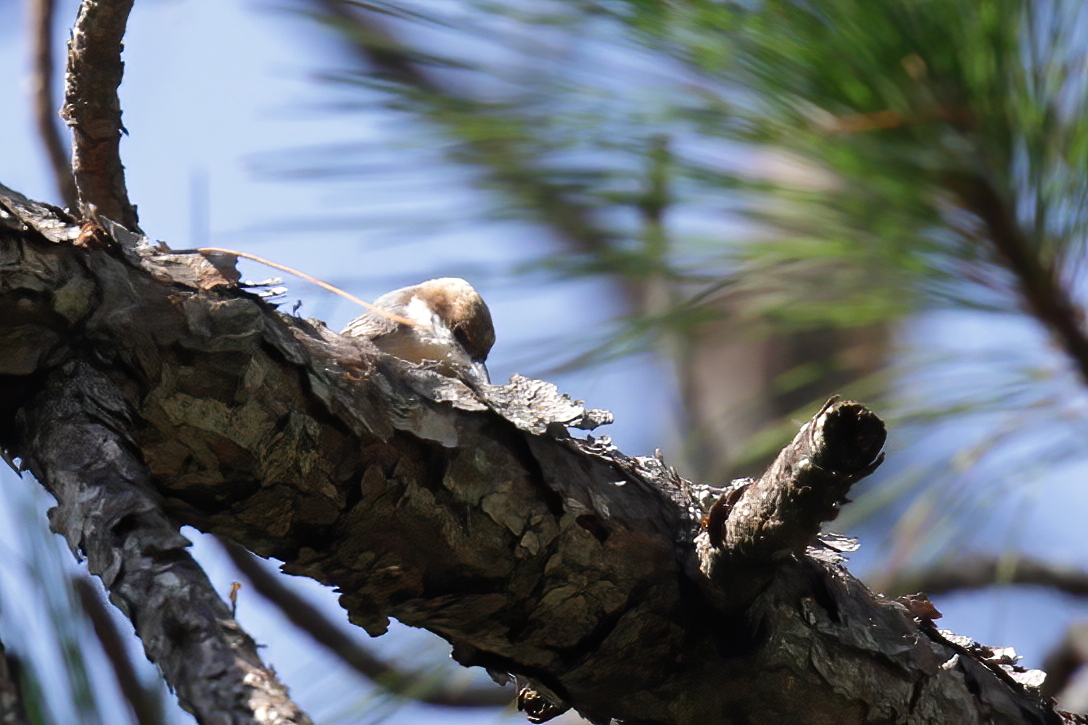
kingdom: Animalia
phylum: Chordata
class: Aves
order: Passeriformes
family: Sittidae
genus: Sitta
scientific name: Sitta pusilla
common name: Brown-headed nuthatch
